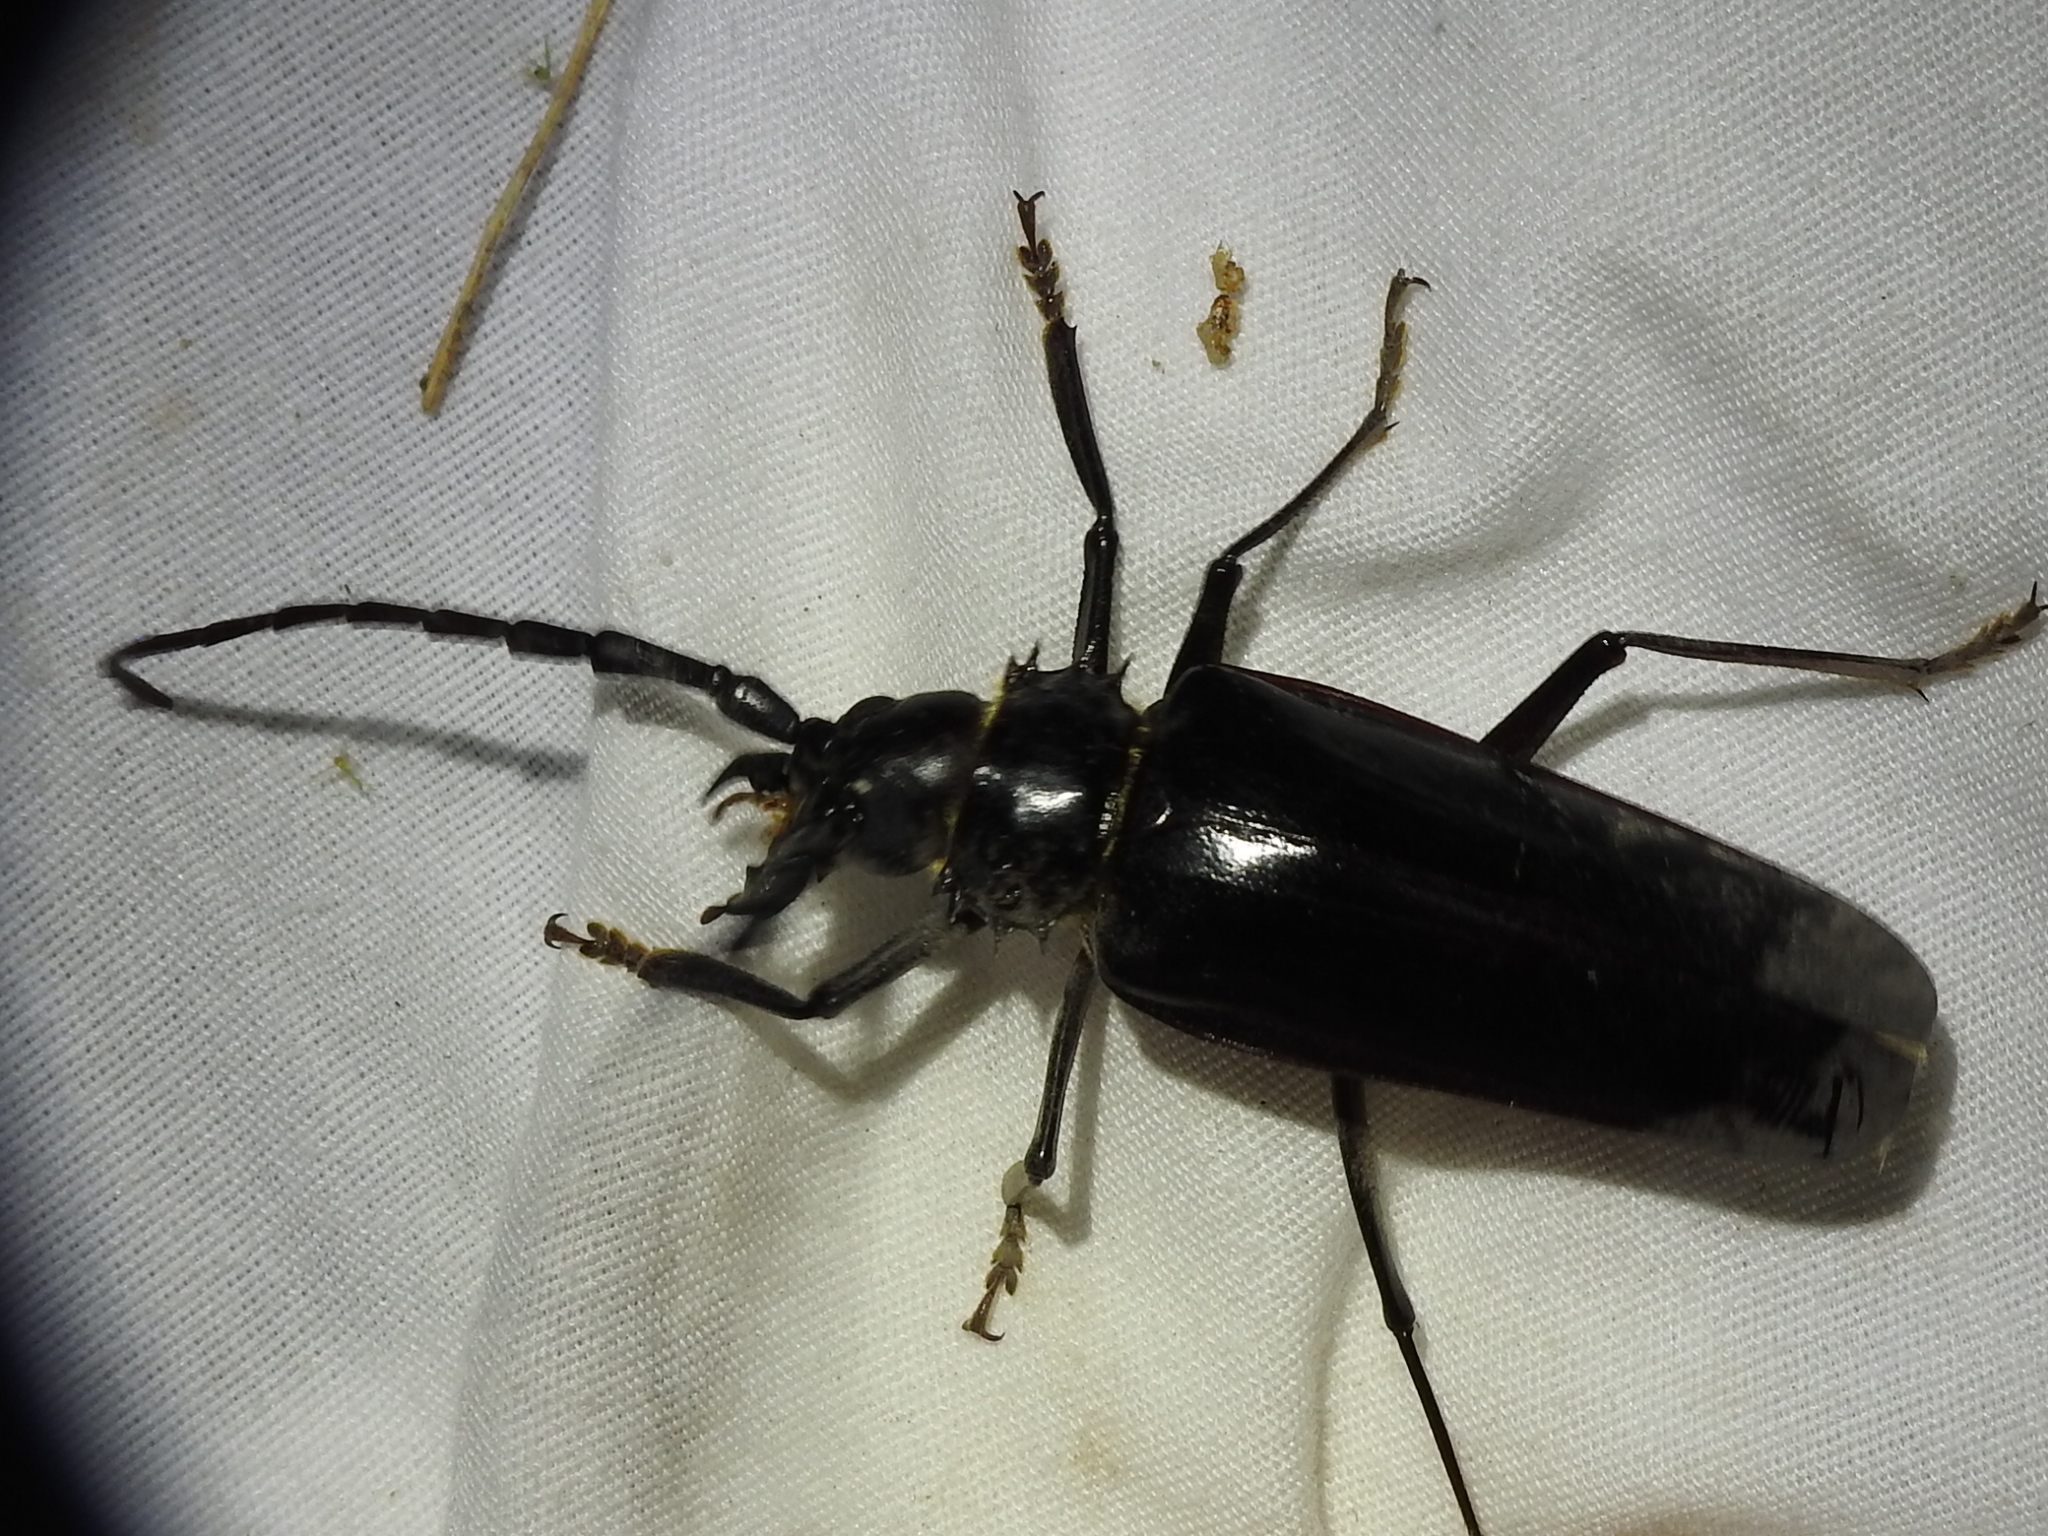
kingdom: Animalia
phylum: Arthropoda
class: Insecta
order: Coleoptera
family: Cerambycidae
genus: Derobrachus
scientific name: Derobrachus hovorei
